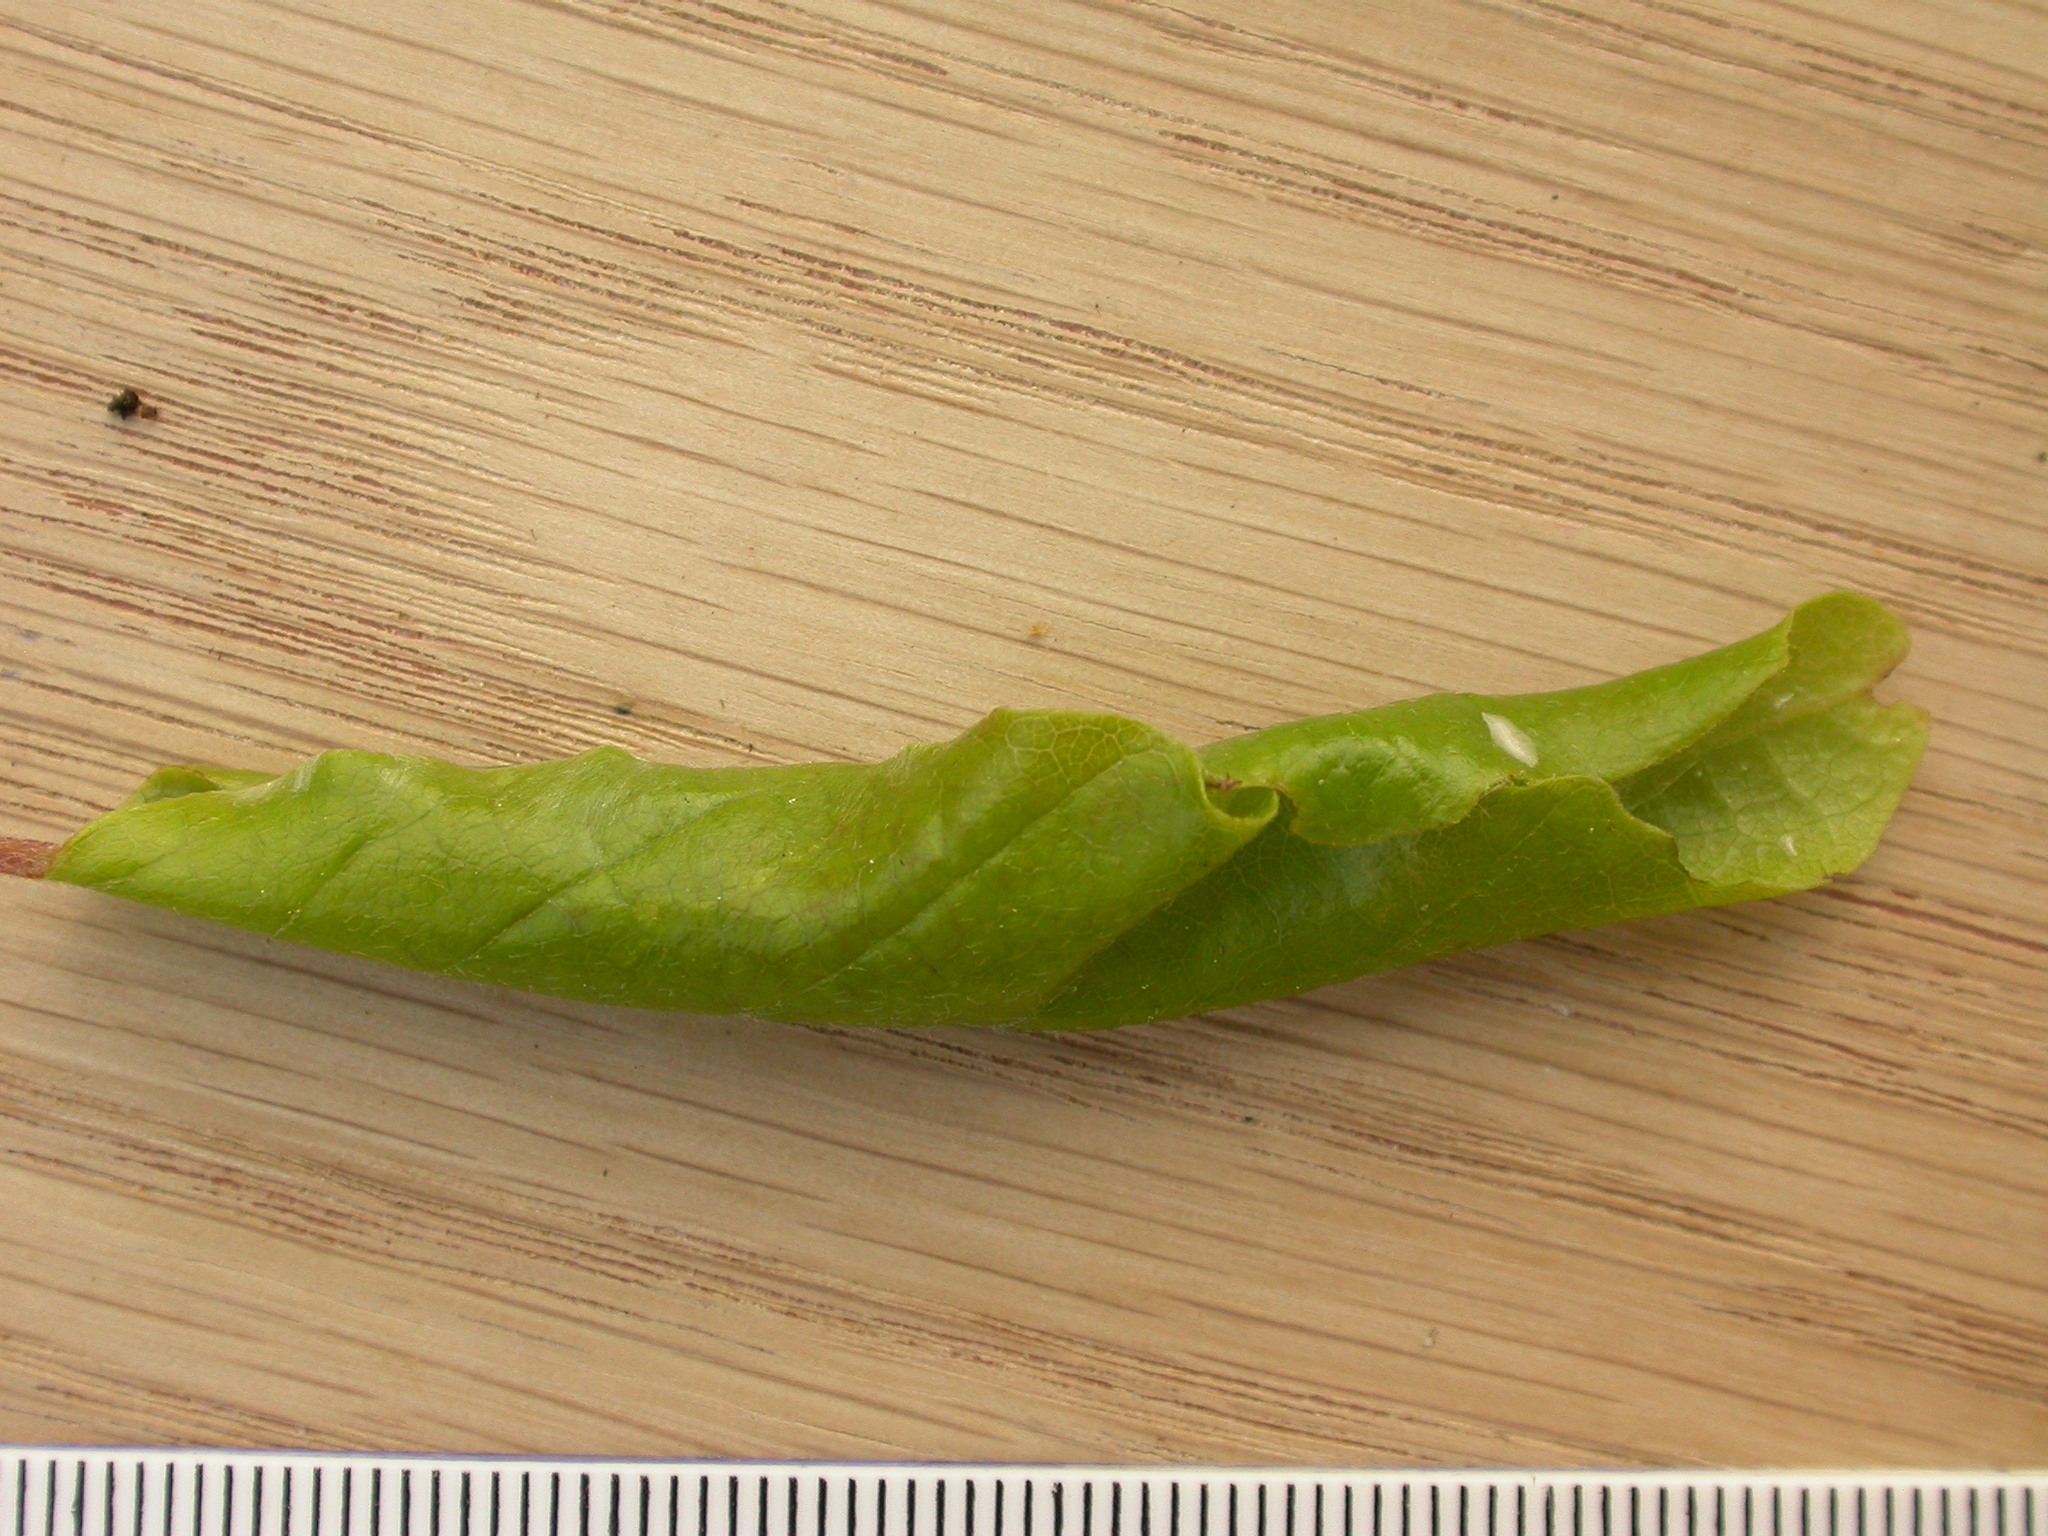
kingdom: Plantae
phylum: Tracheophyta
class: Magnoliopsida
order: Fagales
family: Fagaceae
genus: Fagus
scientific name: Fagus sylvatica
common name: Beech
